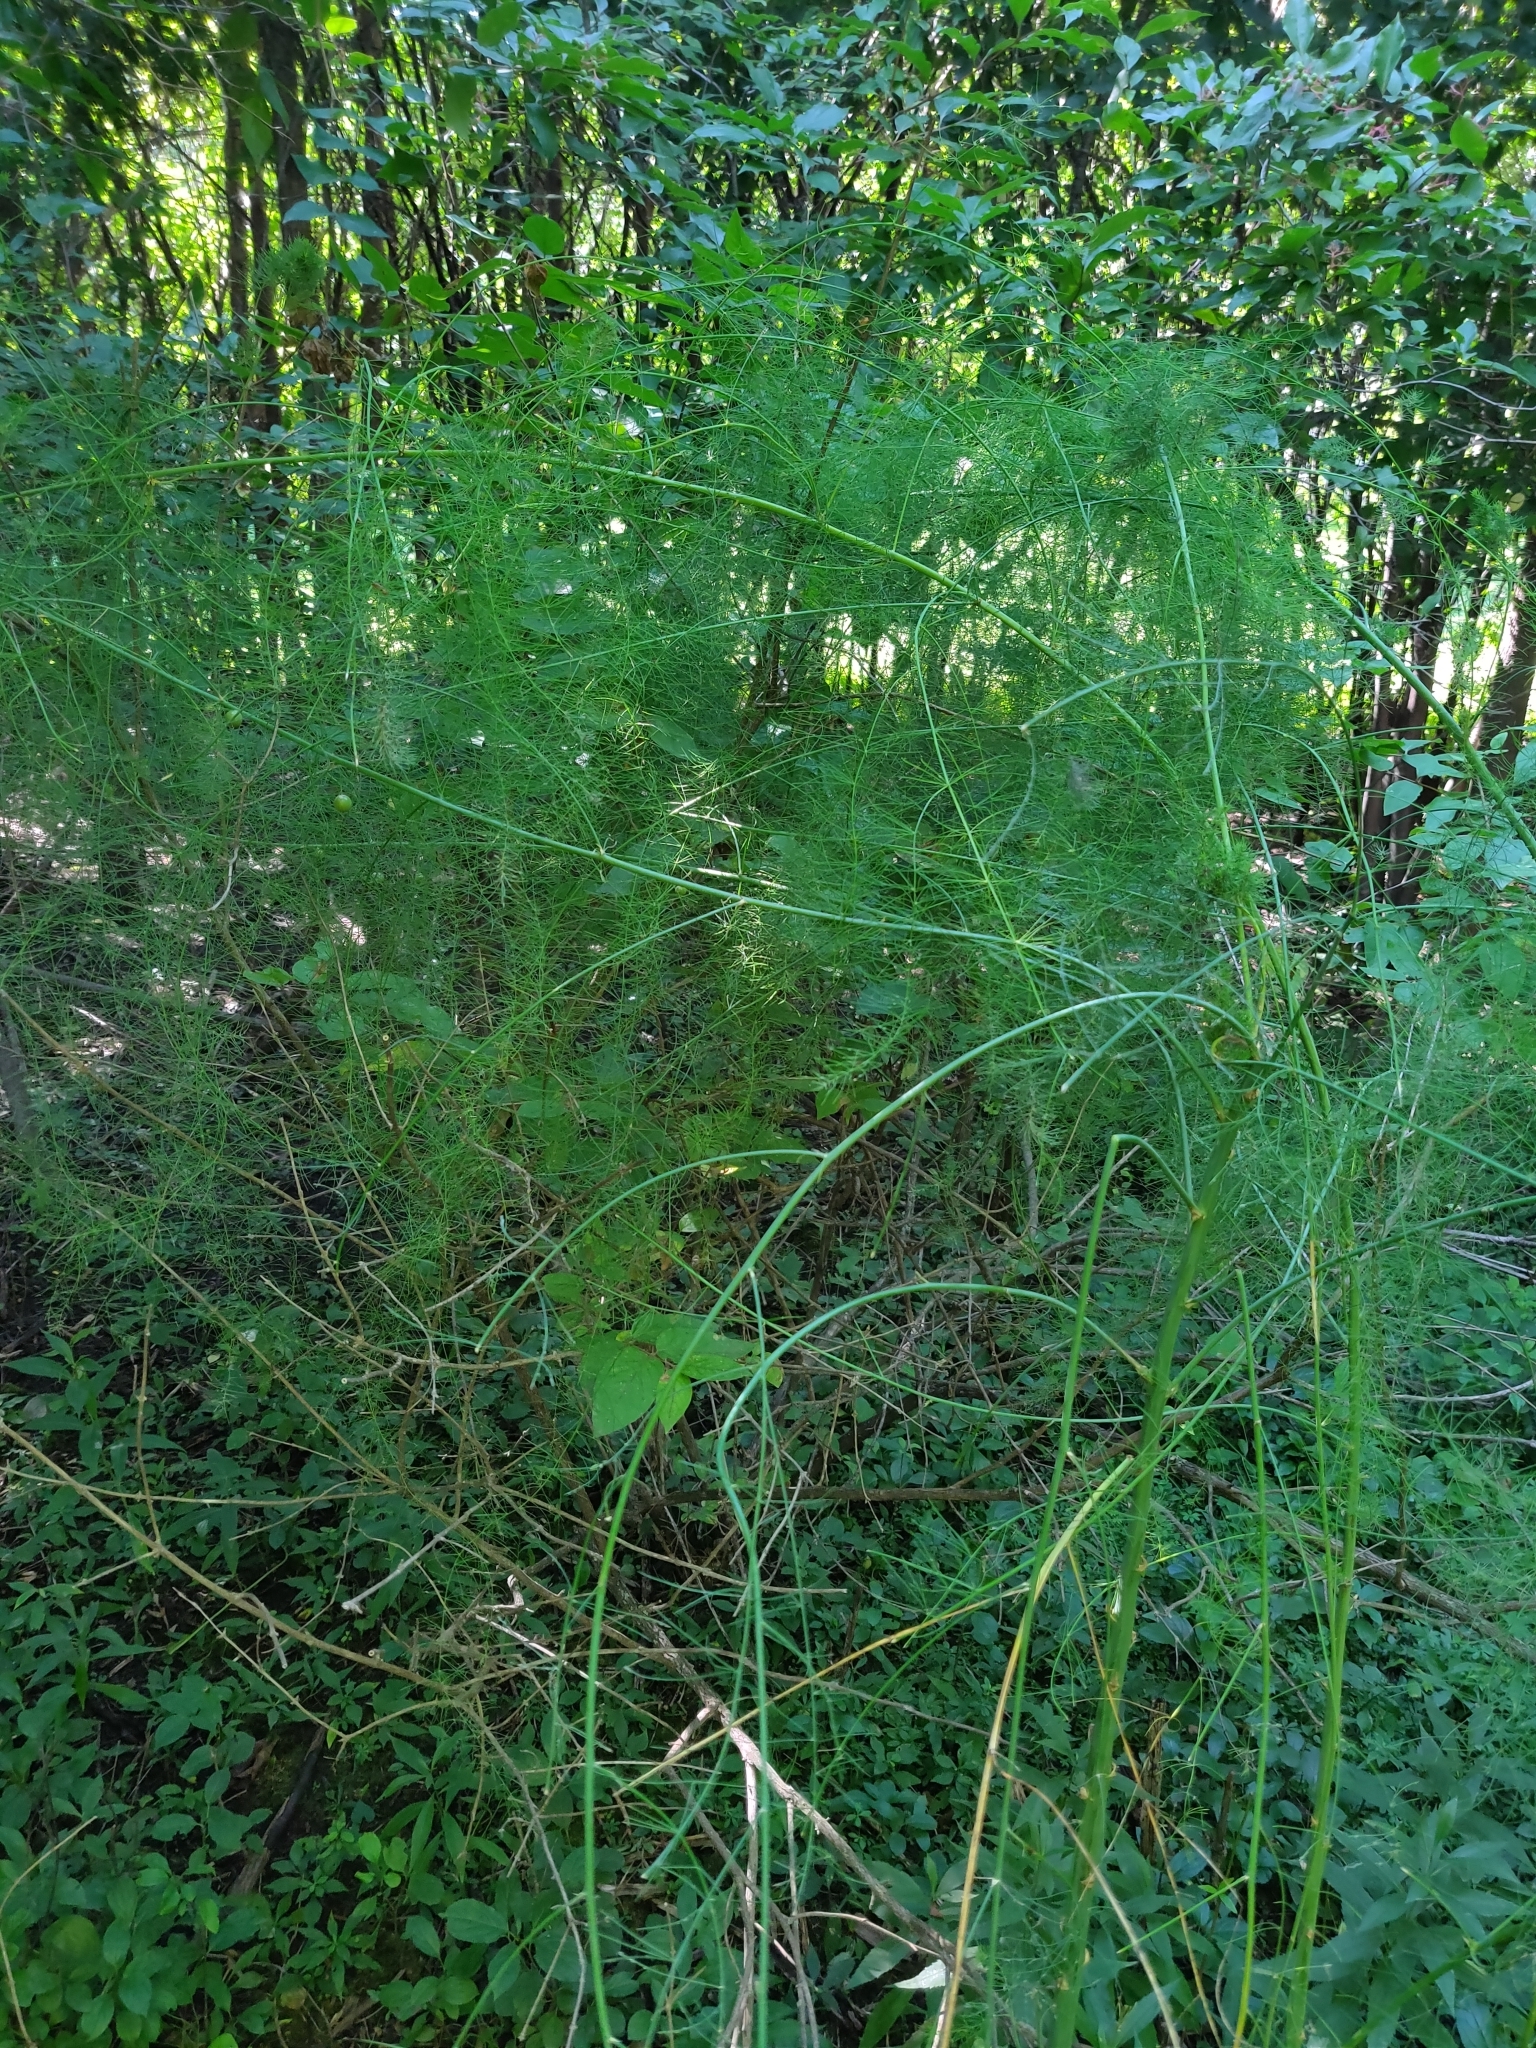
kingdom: Plantae
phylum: Tracheophyta
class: Liliopsida
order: Asparagales
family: Asparagaceae
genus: Asparagus
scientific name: Asparagus officinalis
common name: Garden asparagus
